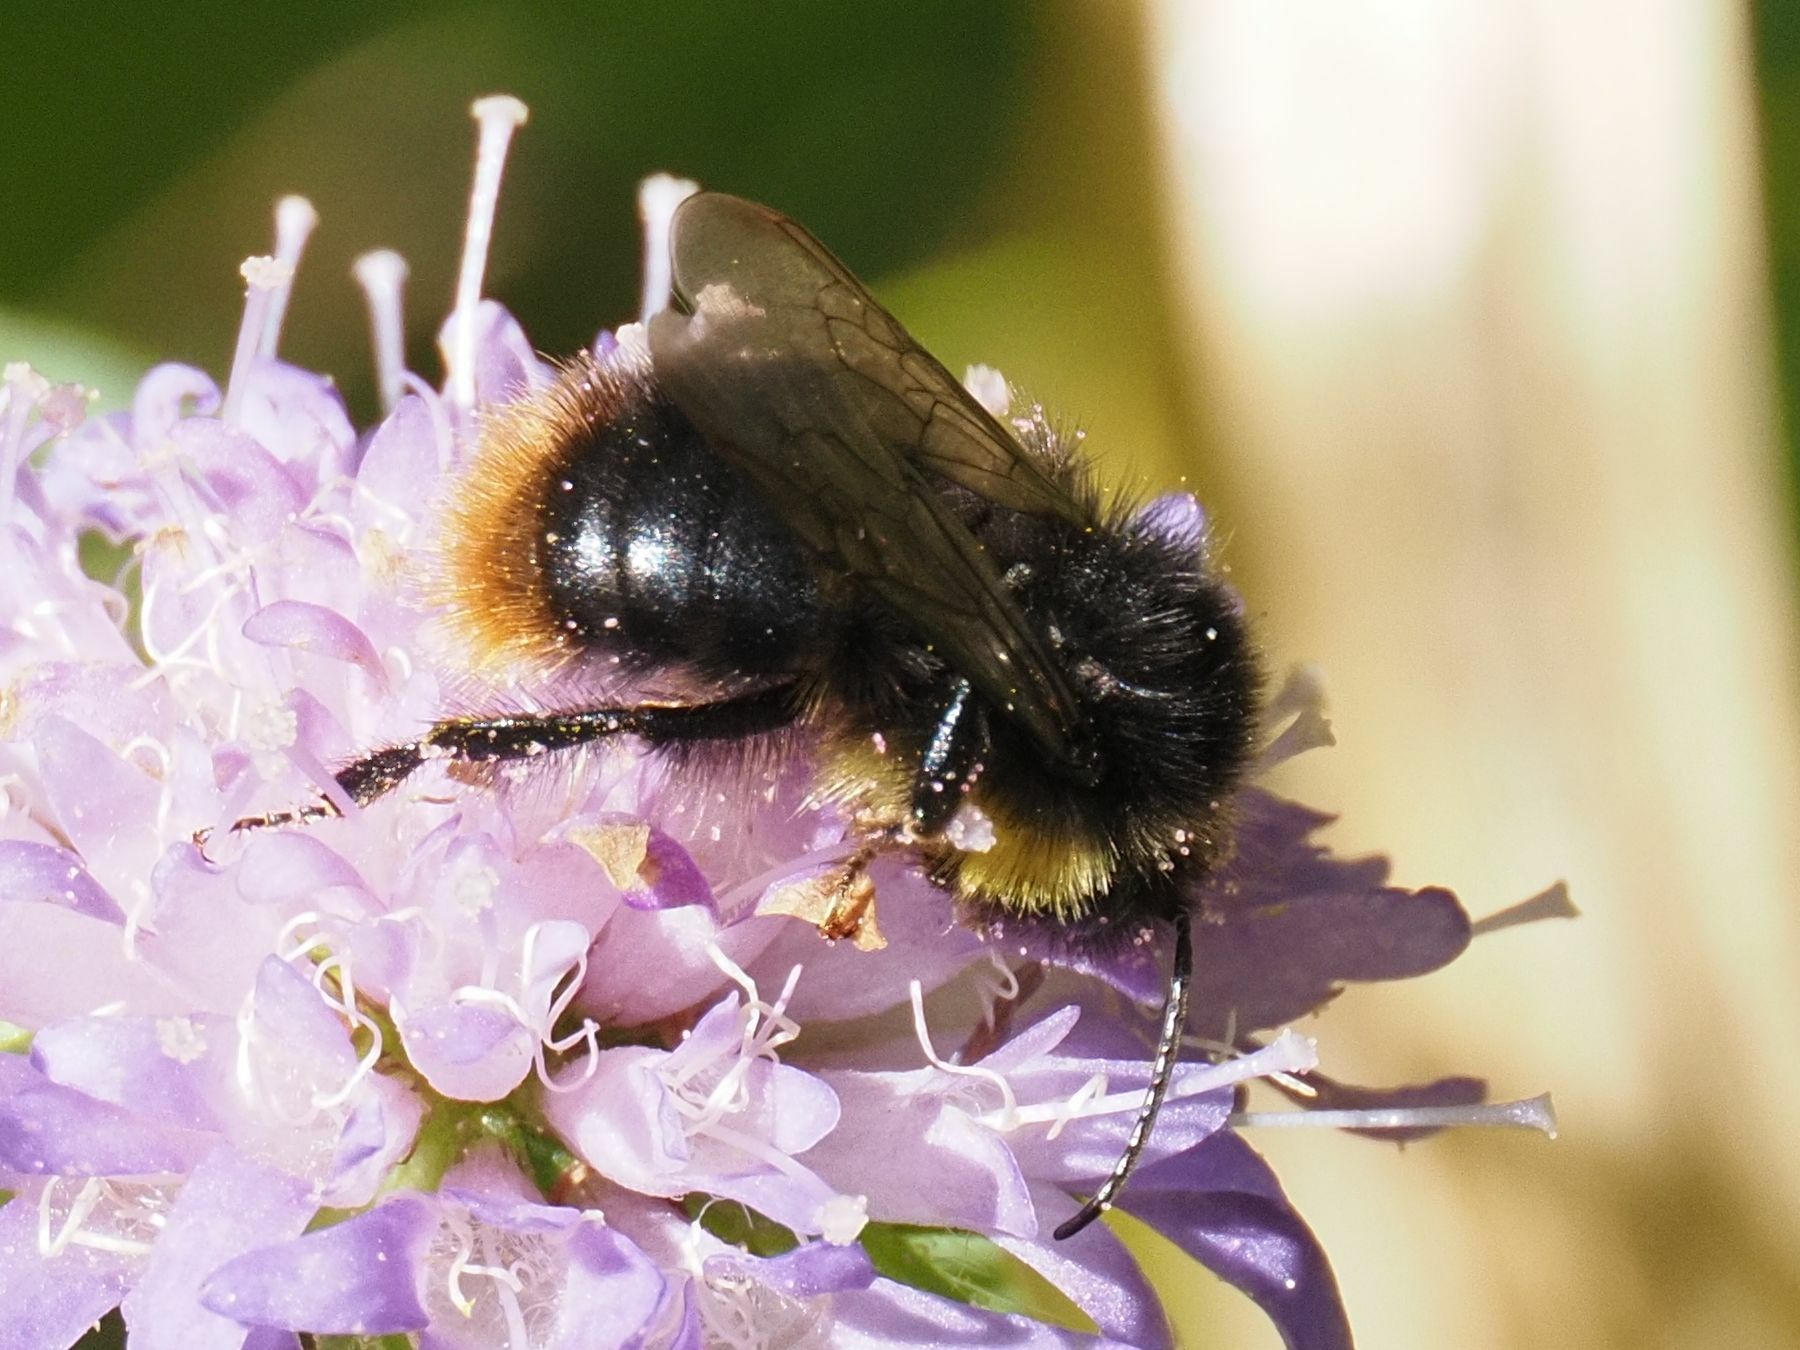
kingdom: Animalia
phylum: Arthropoda
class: Insecta
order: Hymenoptera
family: Apidae
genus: Bombus
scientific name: Bombus soroeensis
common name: Broken-belted humble-bee
